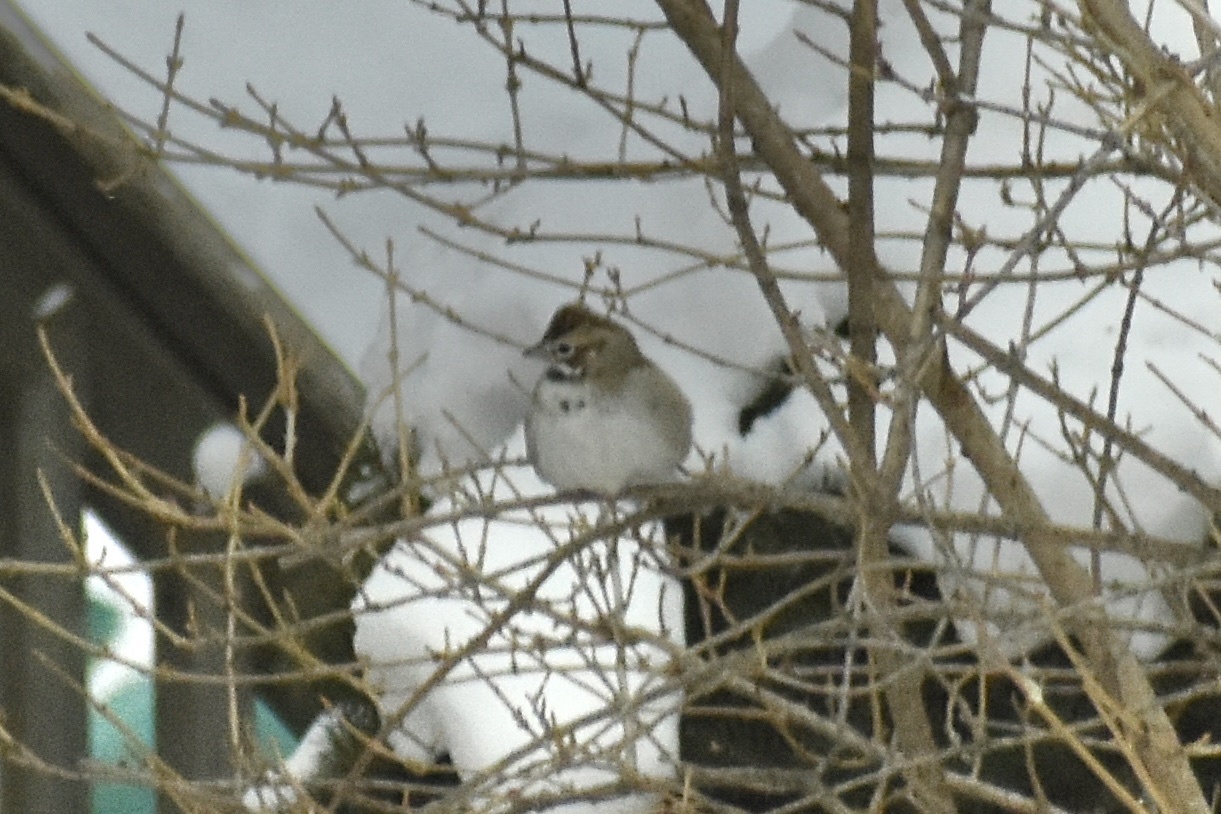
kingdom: Animalia
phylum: Chordata
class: Aves
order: Passeriformes
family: Passerellidae
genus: Chondestes
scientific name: Chondestes grammacus
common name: Lark sparrow
